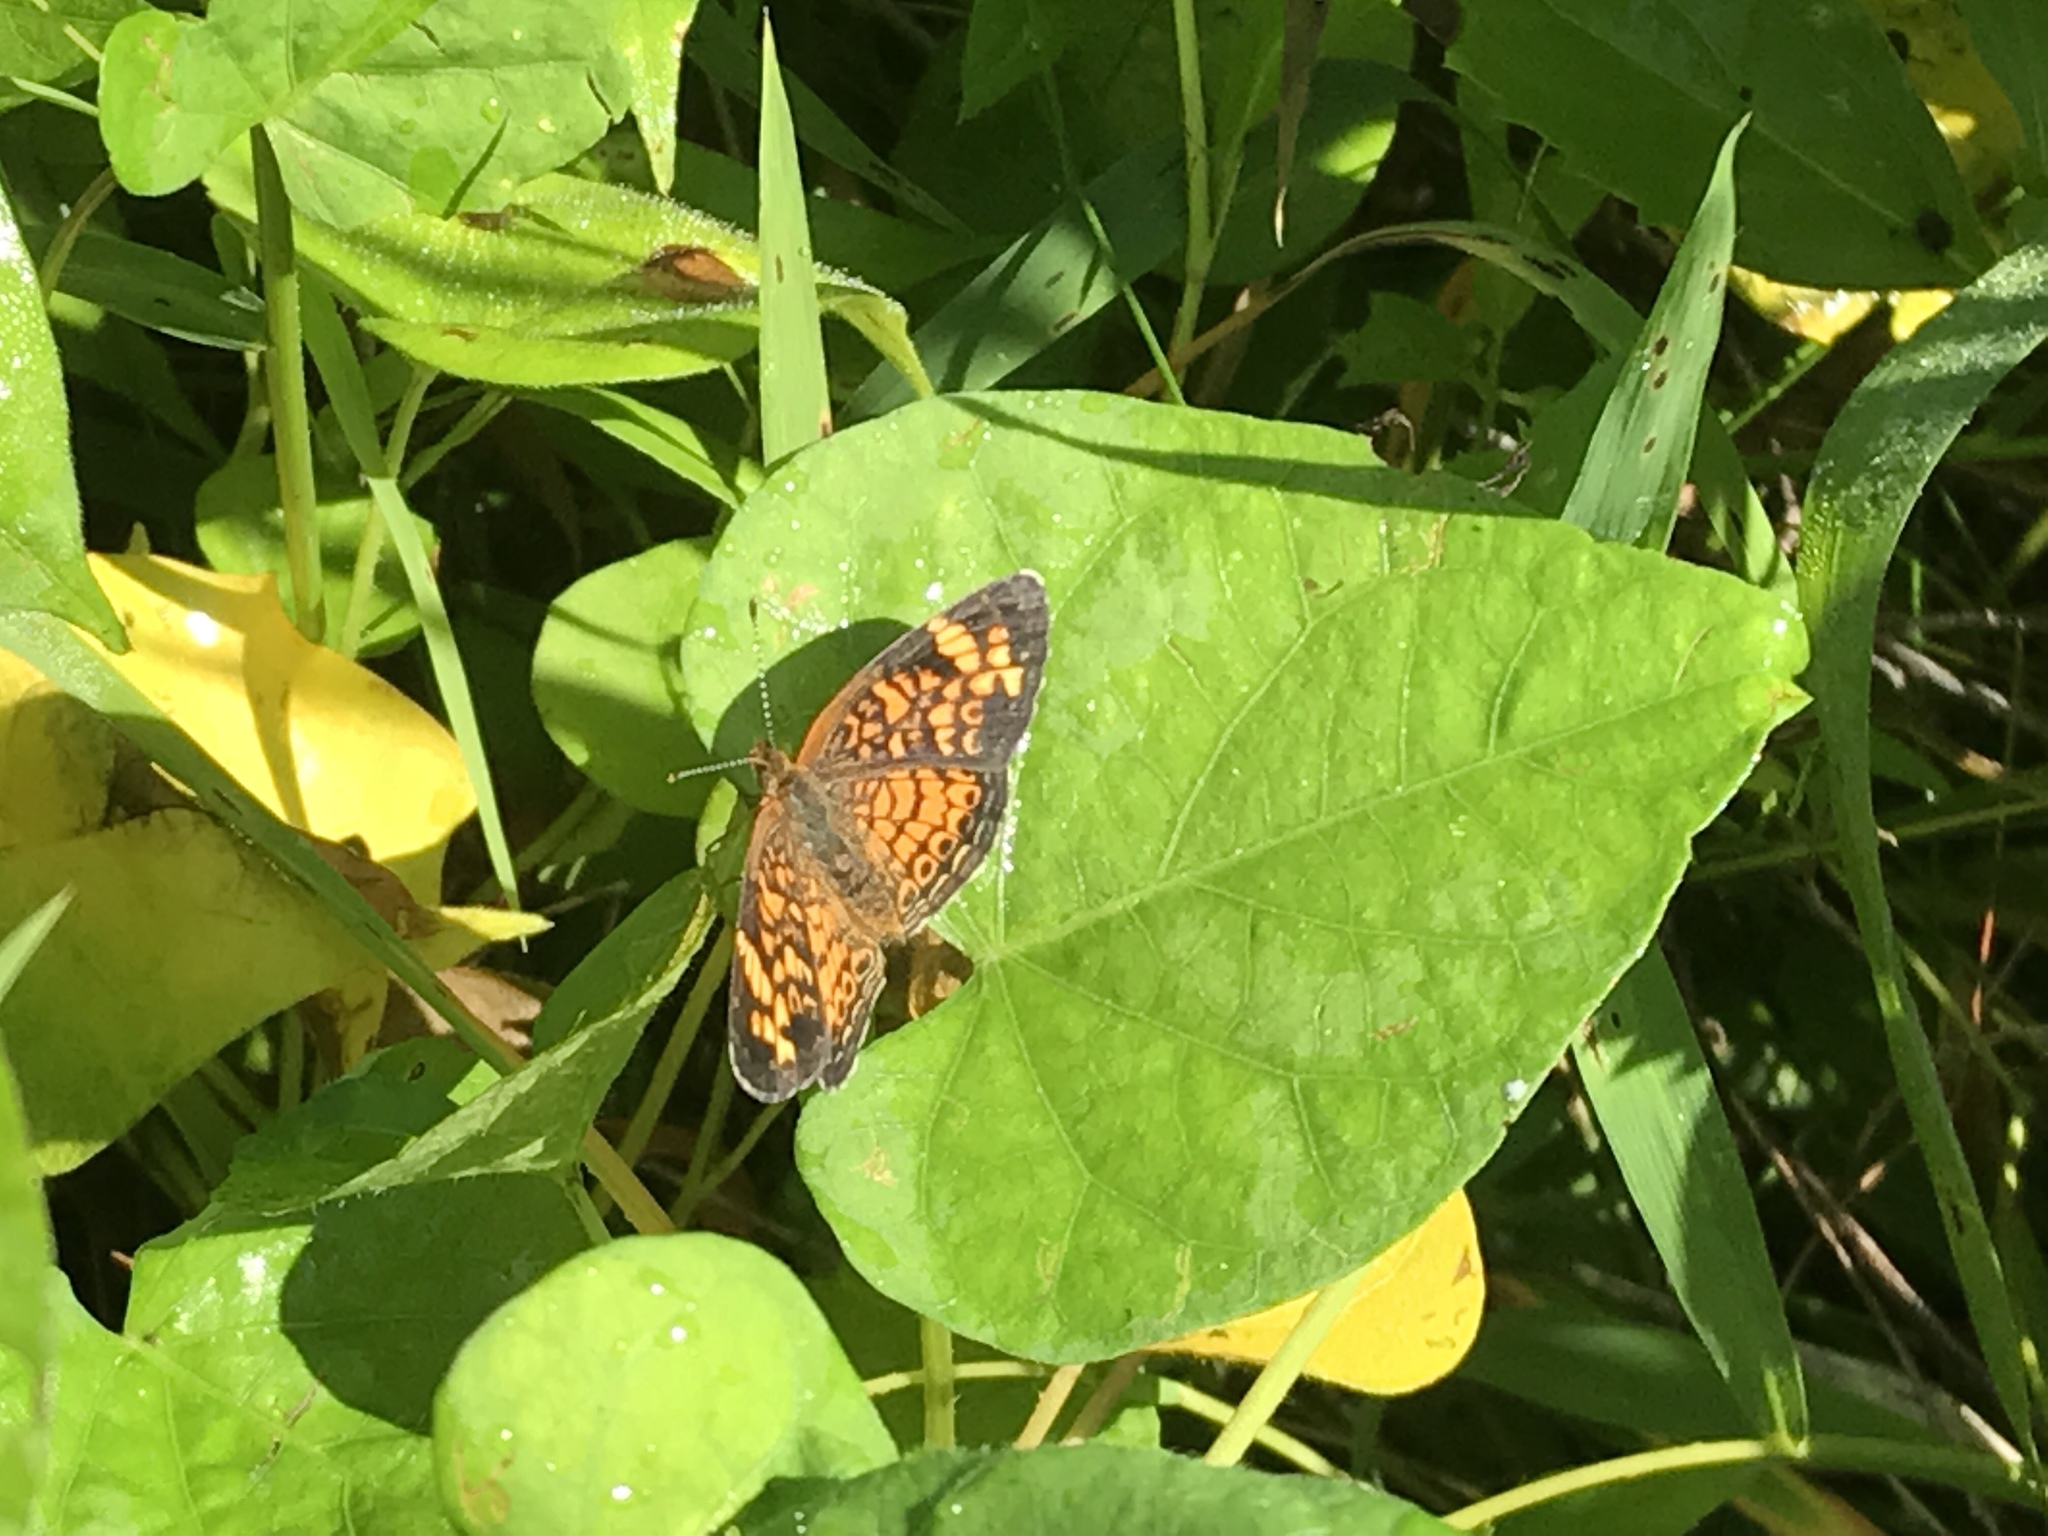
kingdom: Animalia
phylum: Arthropoda
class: Insecta
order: Lepidoptera
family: Nymphalidae
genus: Phyciodes
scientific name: Phyciodes tharos
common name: Pearl crescent
